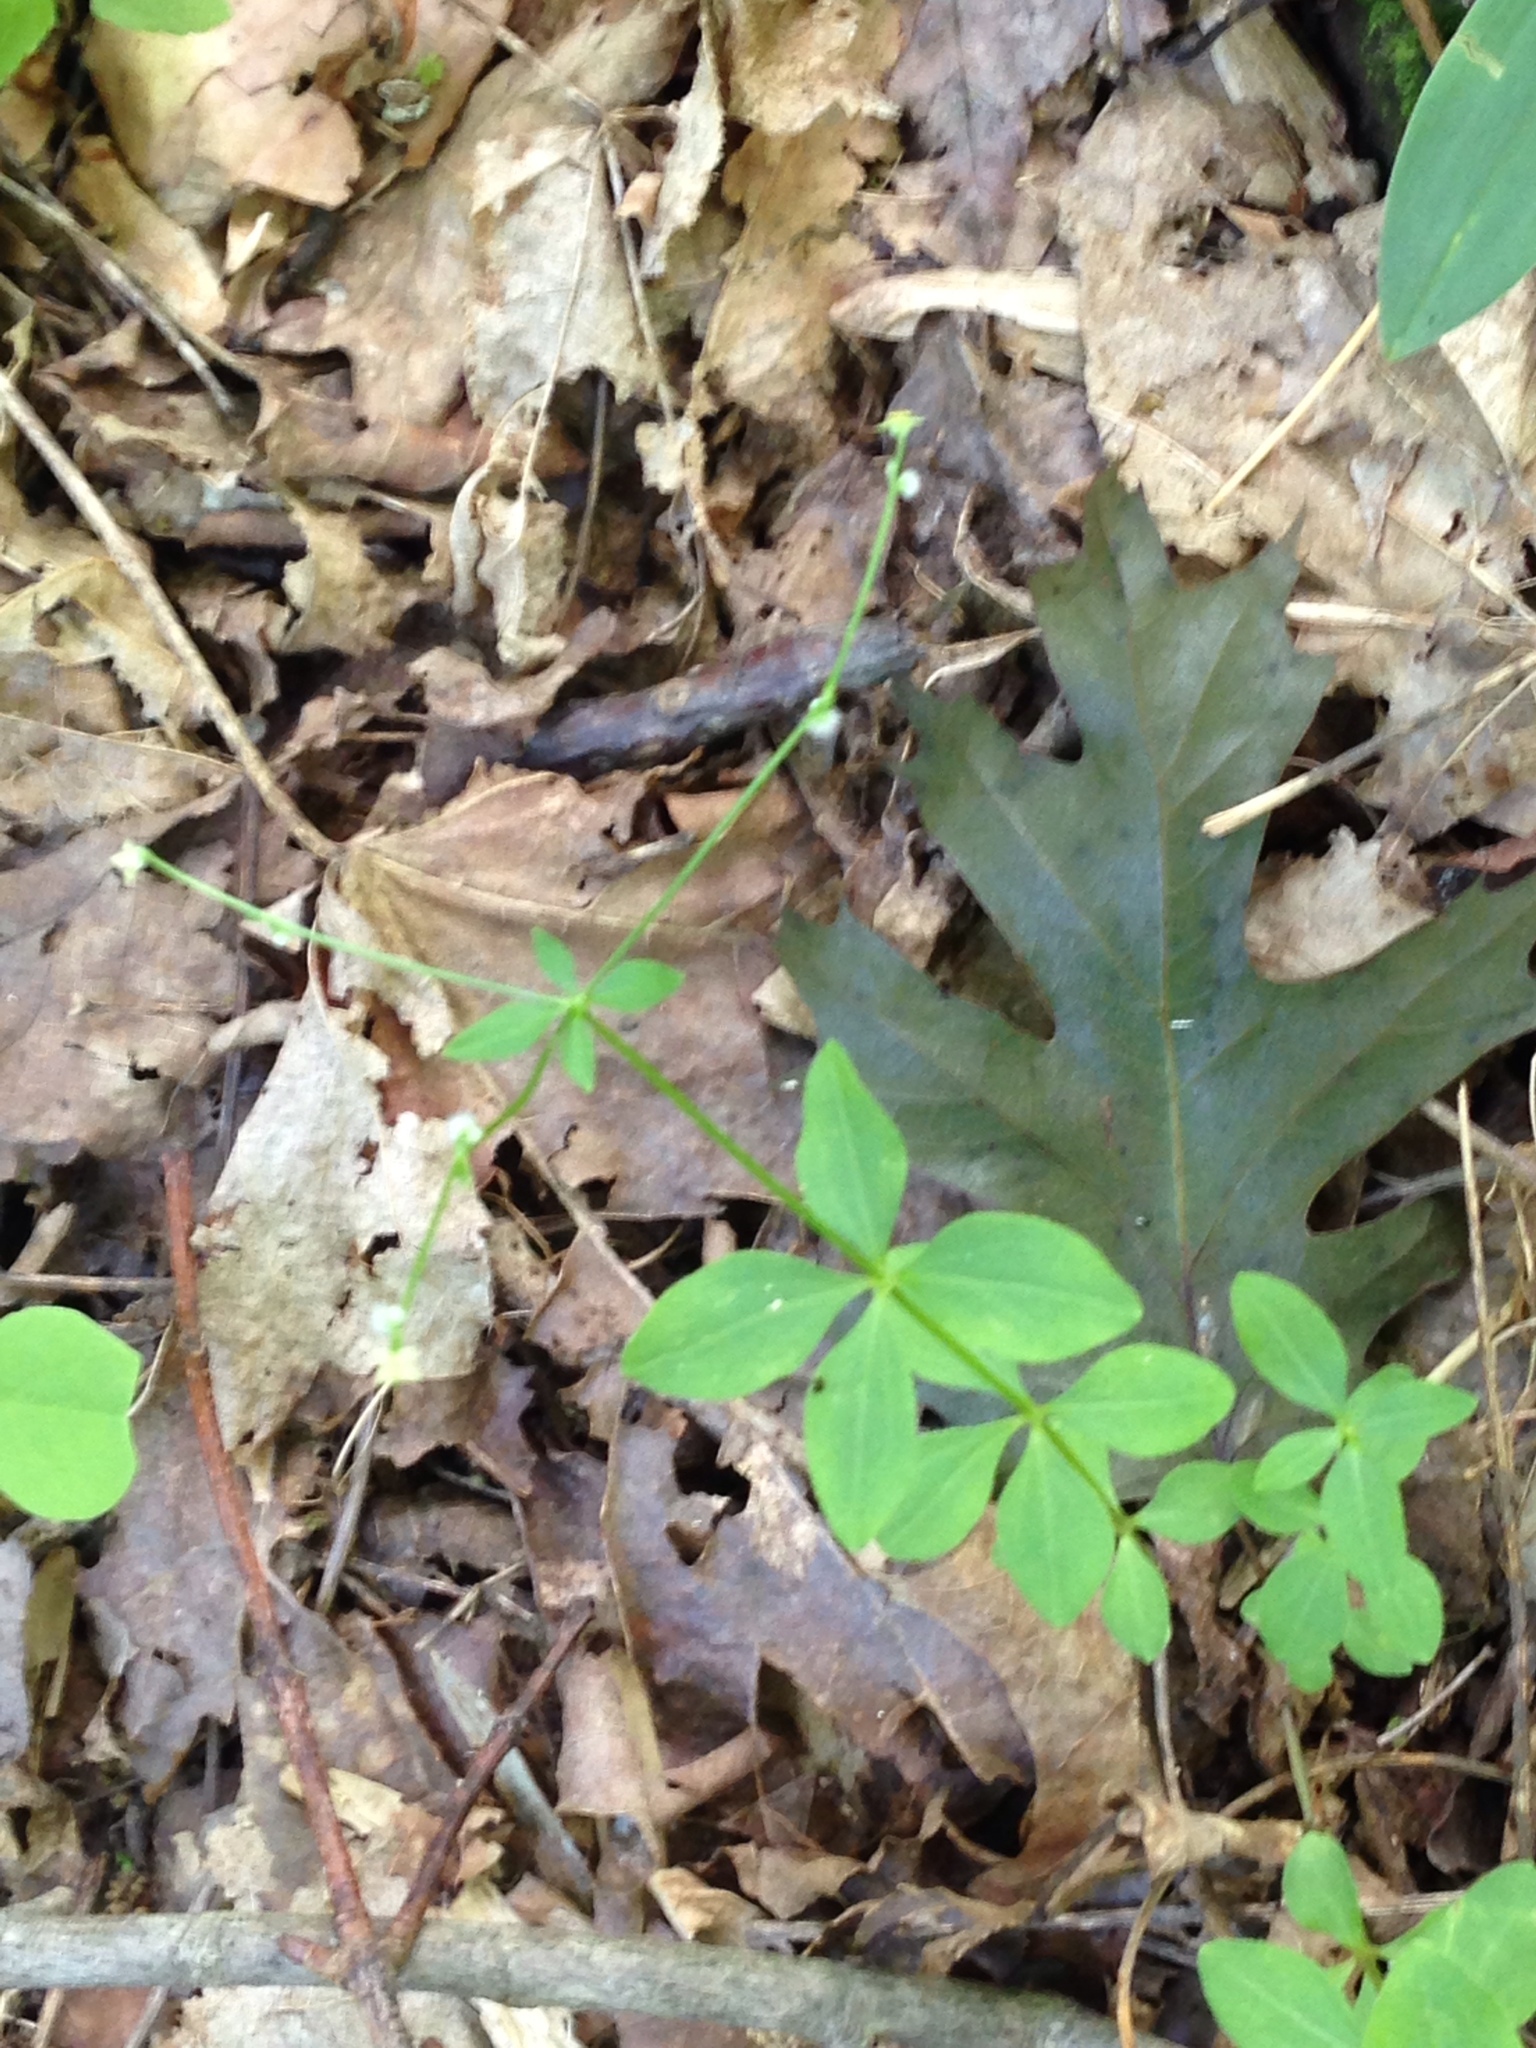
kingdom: Plantae
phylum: Tracheophyta
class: Magnoliopsida
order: Gentianales
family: Rubiaceae
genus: Galium
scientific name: Galium circaezans
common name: Forest bedstraw
